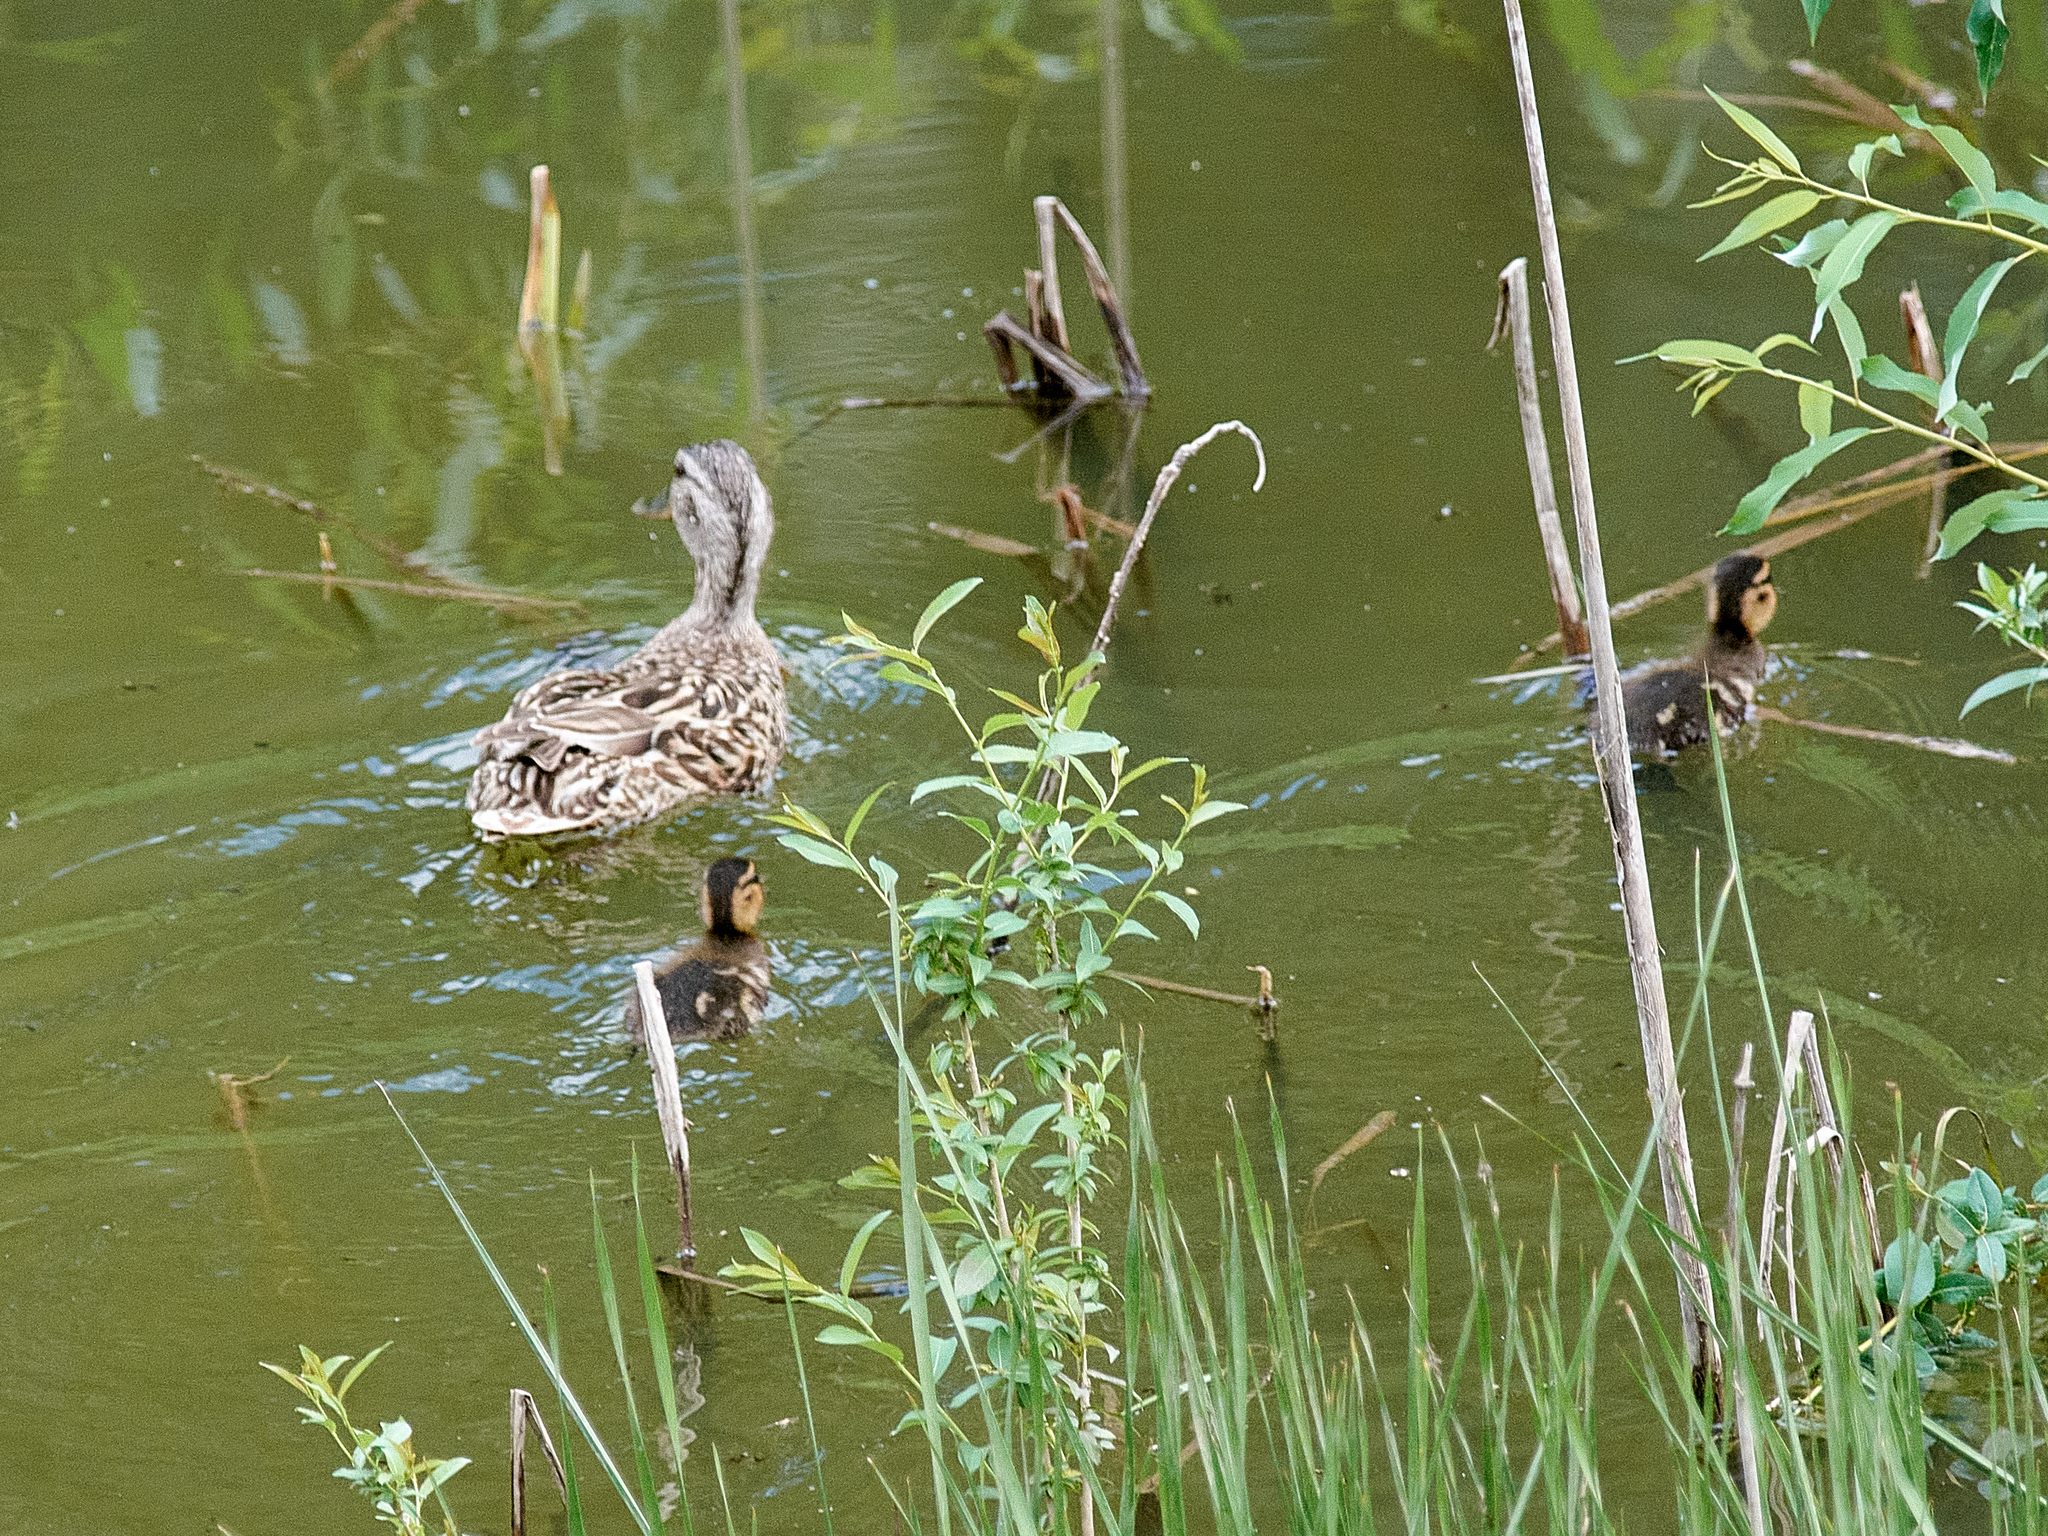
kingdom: Animalia
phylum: Chordata
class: Aves
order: Anseriformes
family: Anatidae
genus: Anas
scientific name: Anas platyrhynchos
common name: Mallard
